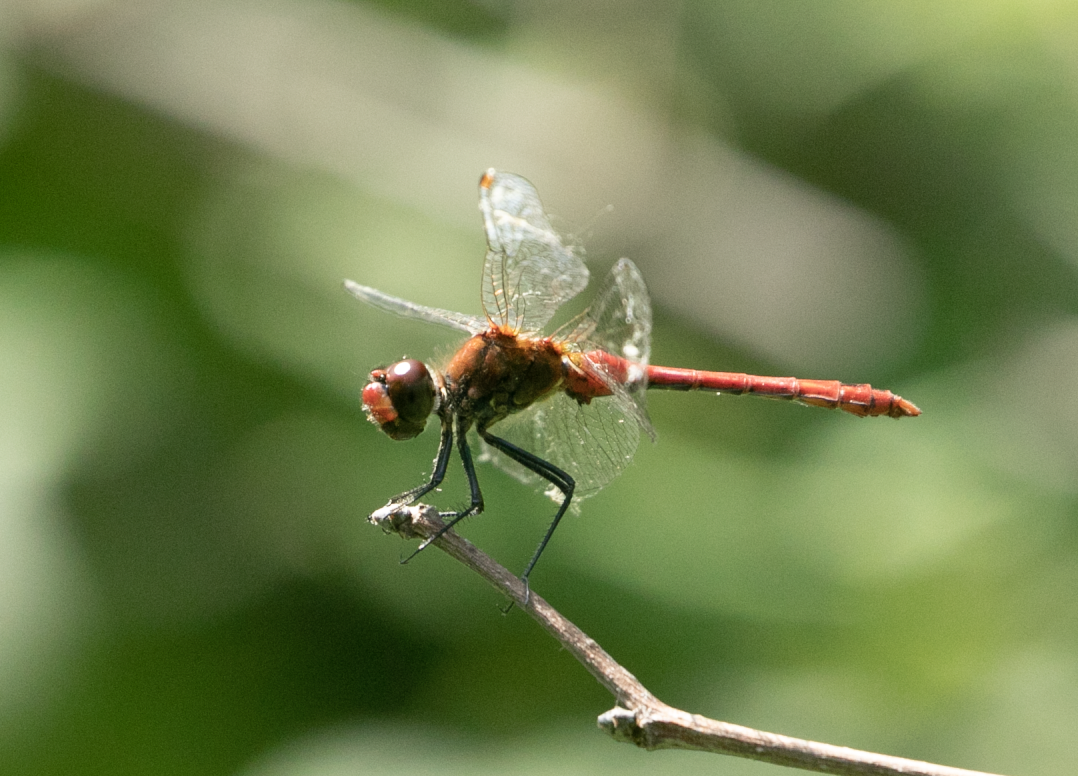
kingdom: Animalia
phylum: Arthropoda
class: Insecta
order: Odonata
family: Libellulidae
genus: Sympetrum
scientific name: Sympetrum sanguineum
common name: Ruddy darter
